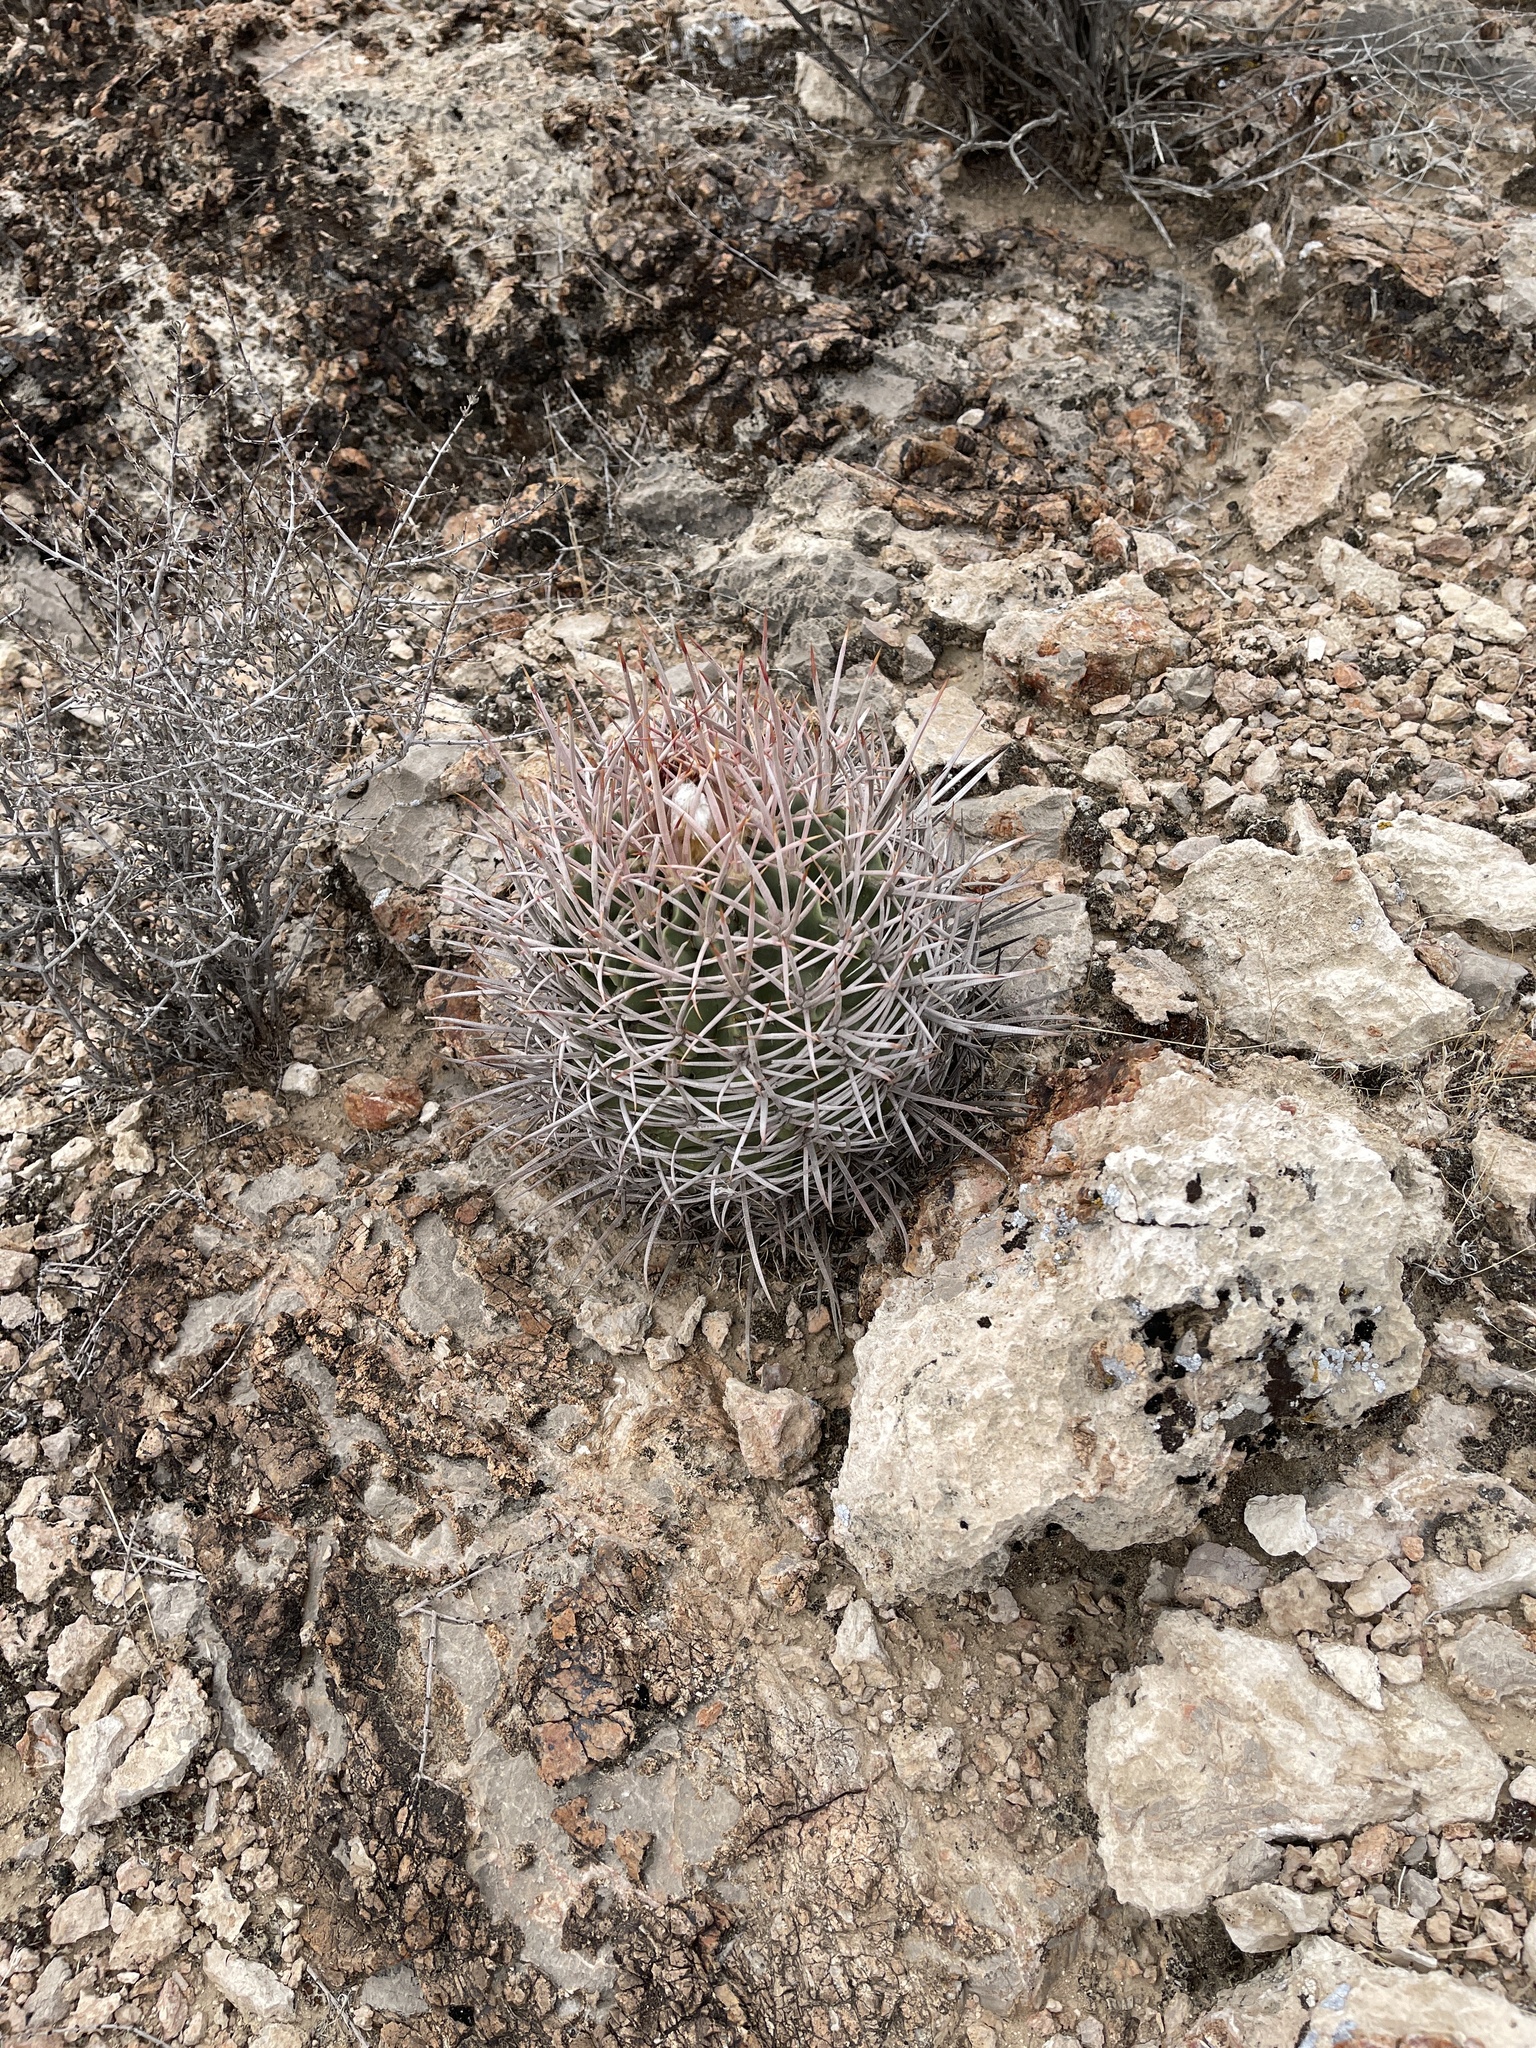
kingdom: Plantae
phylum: Tracheophyta
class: Magnoliopsida
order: Caryophyllales
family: Cactaceae
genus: Echinocactus
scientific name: Echinocactus polycephalus
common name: Cottontop cactus
